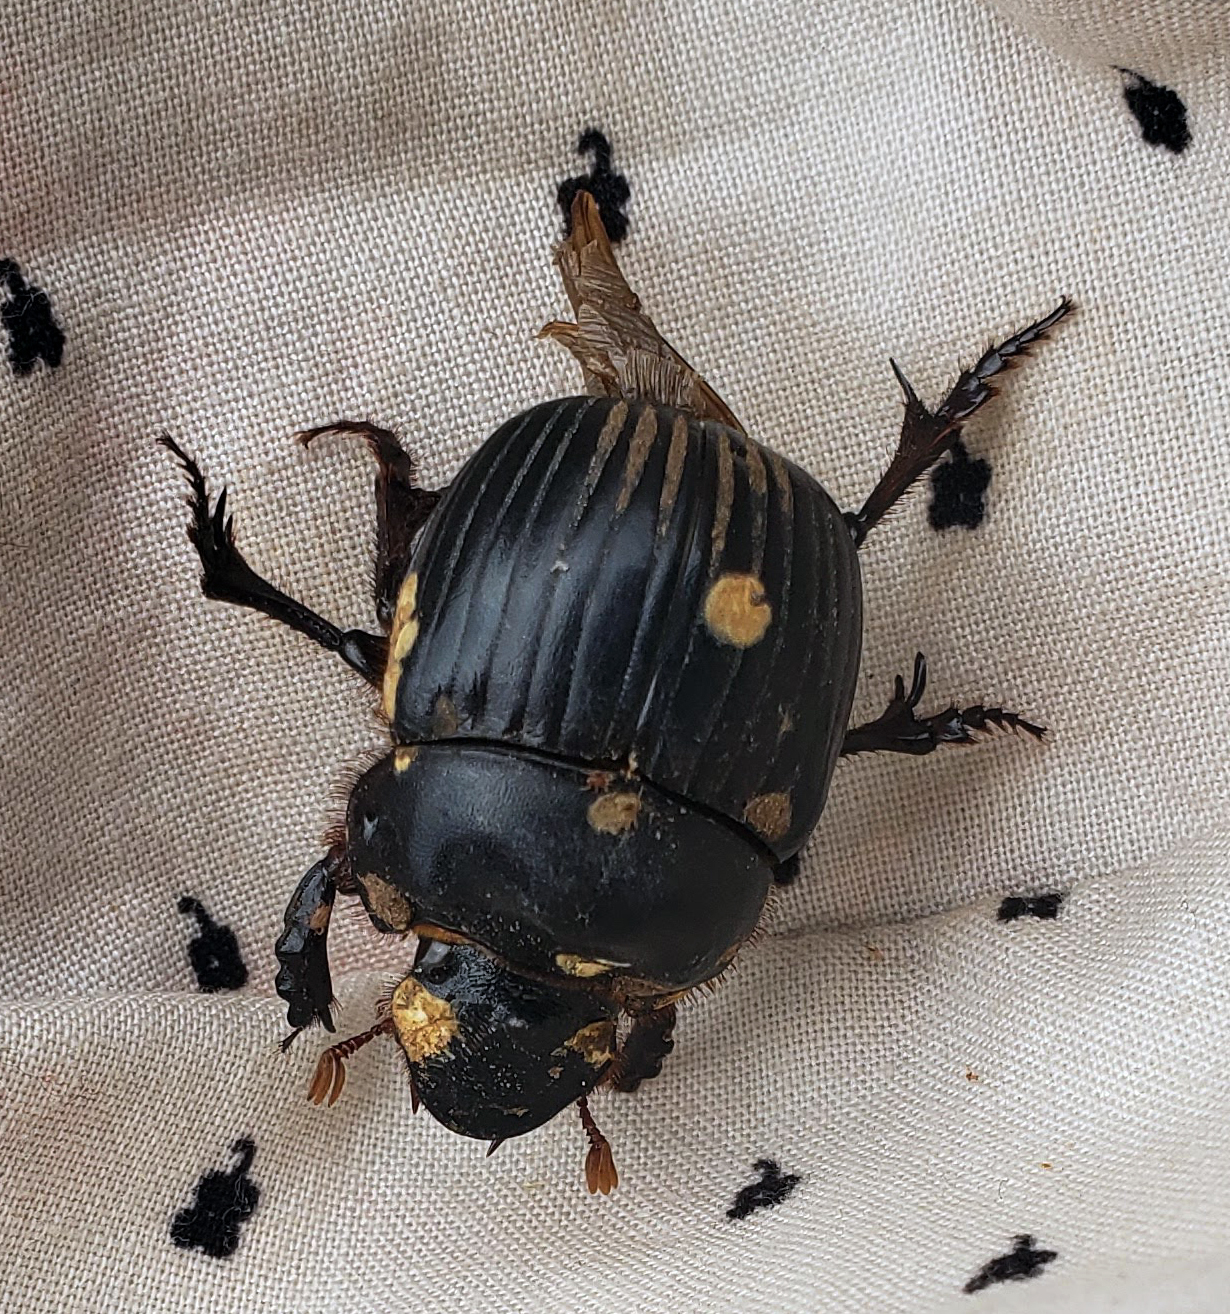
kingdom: Animalia
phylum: Arthropoda
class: Insecta
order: Coleoptera
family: Scarabaeidae
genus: Dichotomius
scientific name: Dichotomius carolinus
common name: Carolina copris
